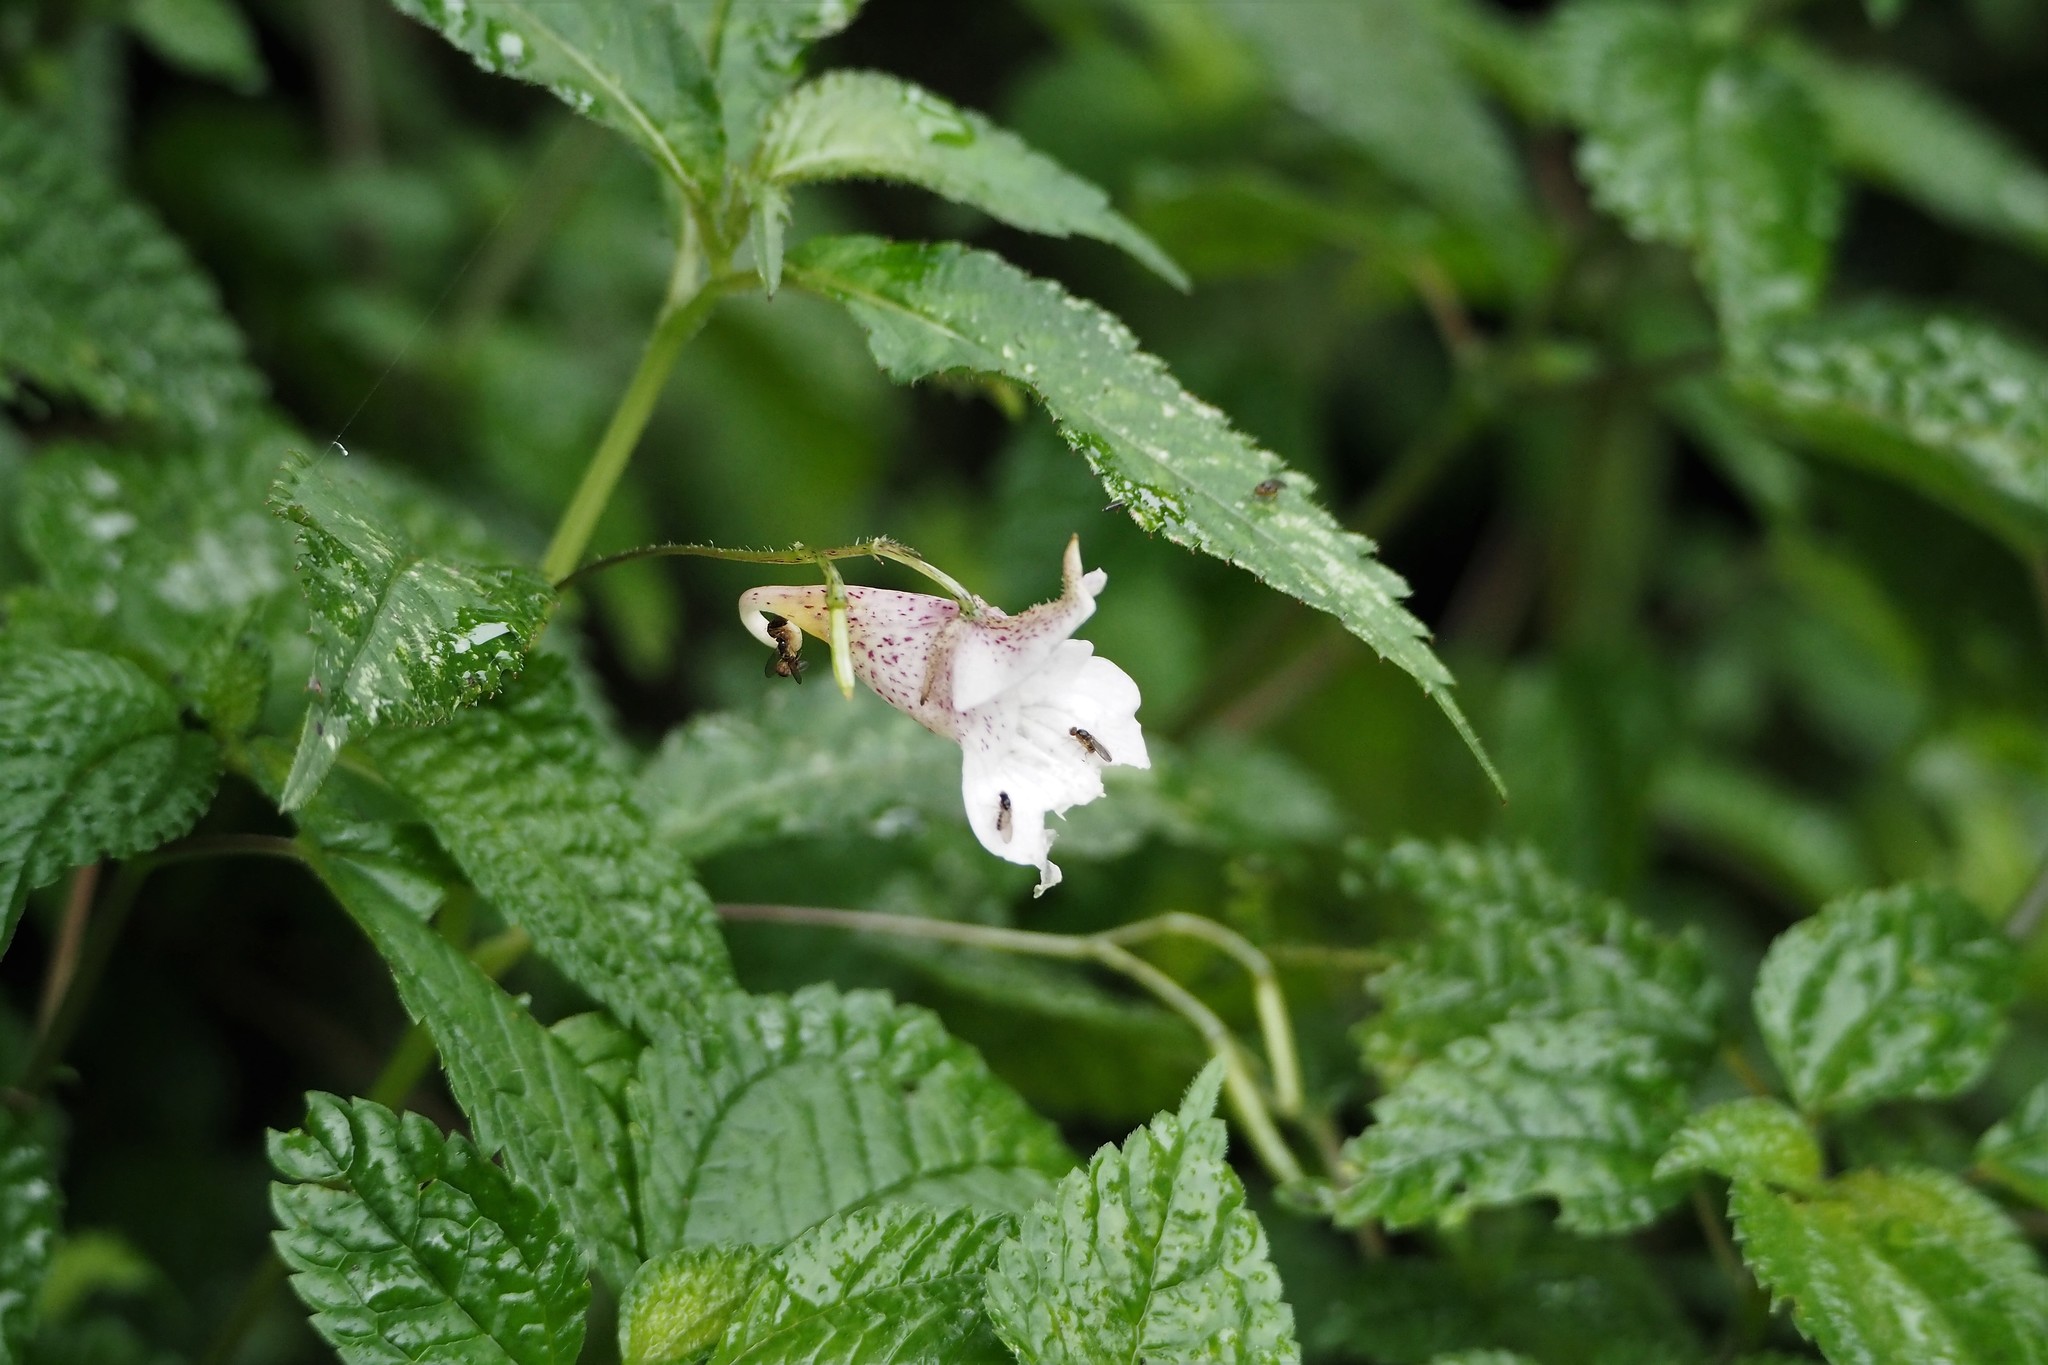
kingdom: Plantae
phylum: Tracheophyta
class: Magnoliopsida
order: Ericales
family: Balsaminaceae
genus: Impatiens
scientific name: Impatiens uniflora
